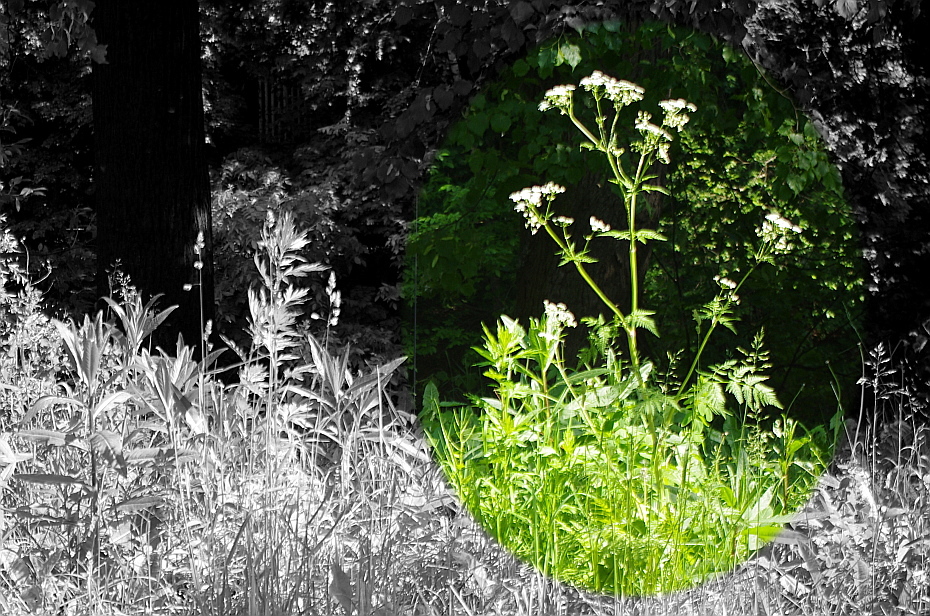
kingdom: Plantae
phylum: Tracheophyta
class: Magnoliopsida
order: Apiales
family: Apiaceae
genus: Anthriscus
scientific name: Anthriscus sylvestris
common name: Cow parsley
